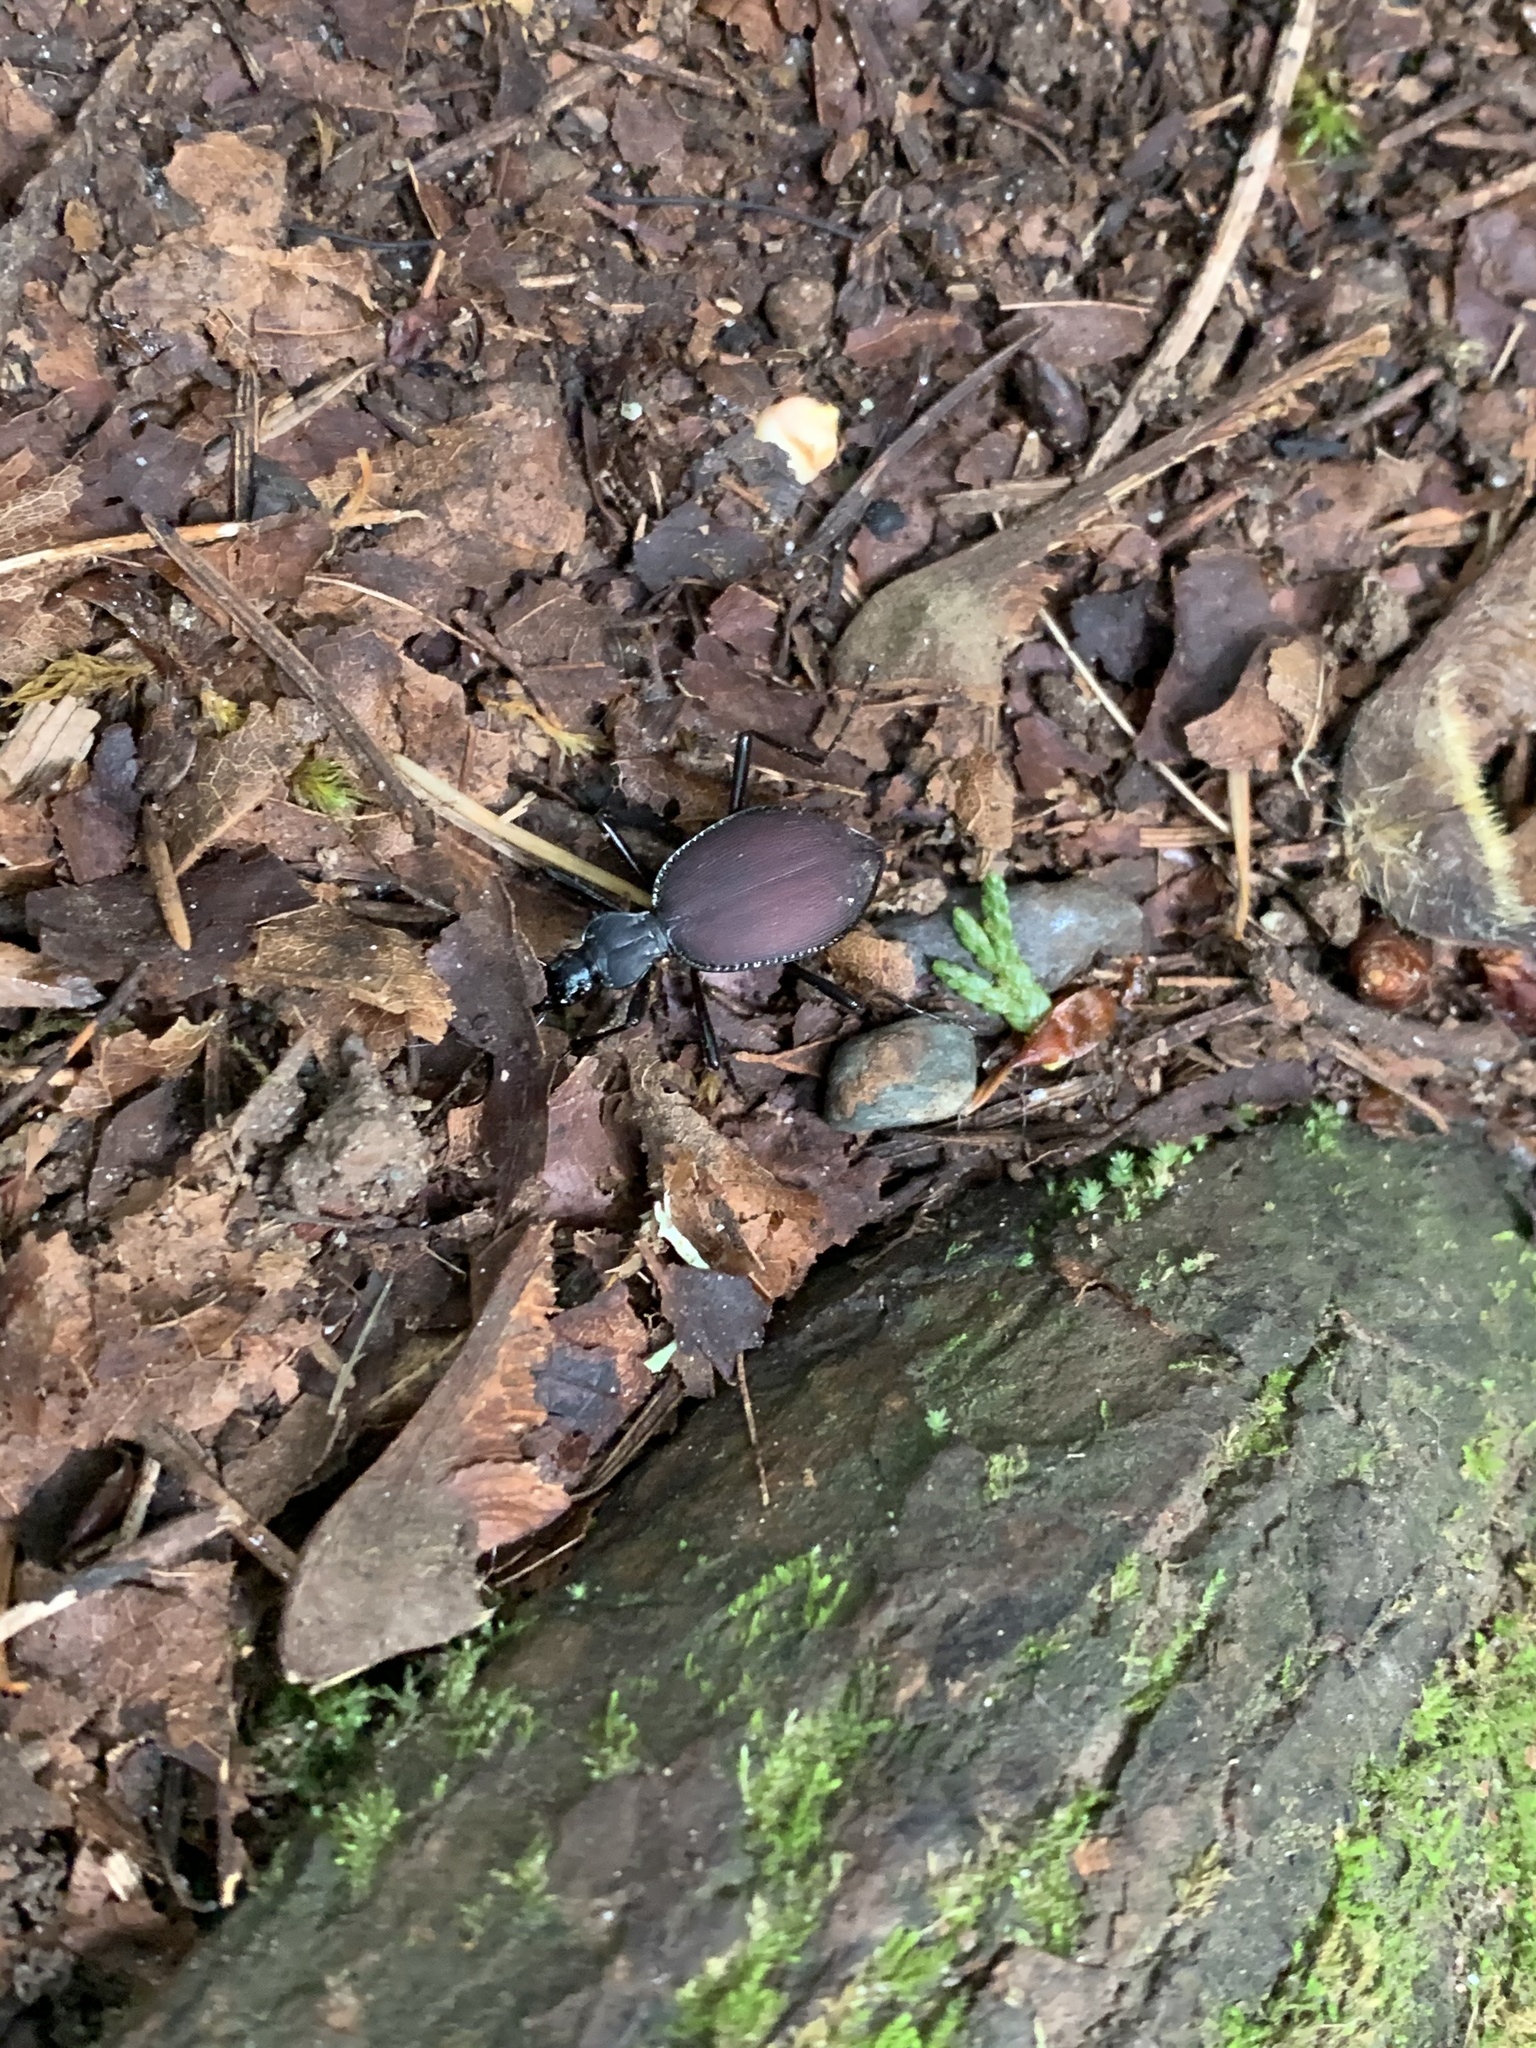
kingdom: Animalia
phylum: Arthropoda
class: Insecta
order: Coleoptera
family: Carabidae
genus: Scaphinotus
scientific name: Scaphinotus angusticollis
